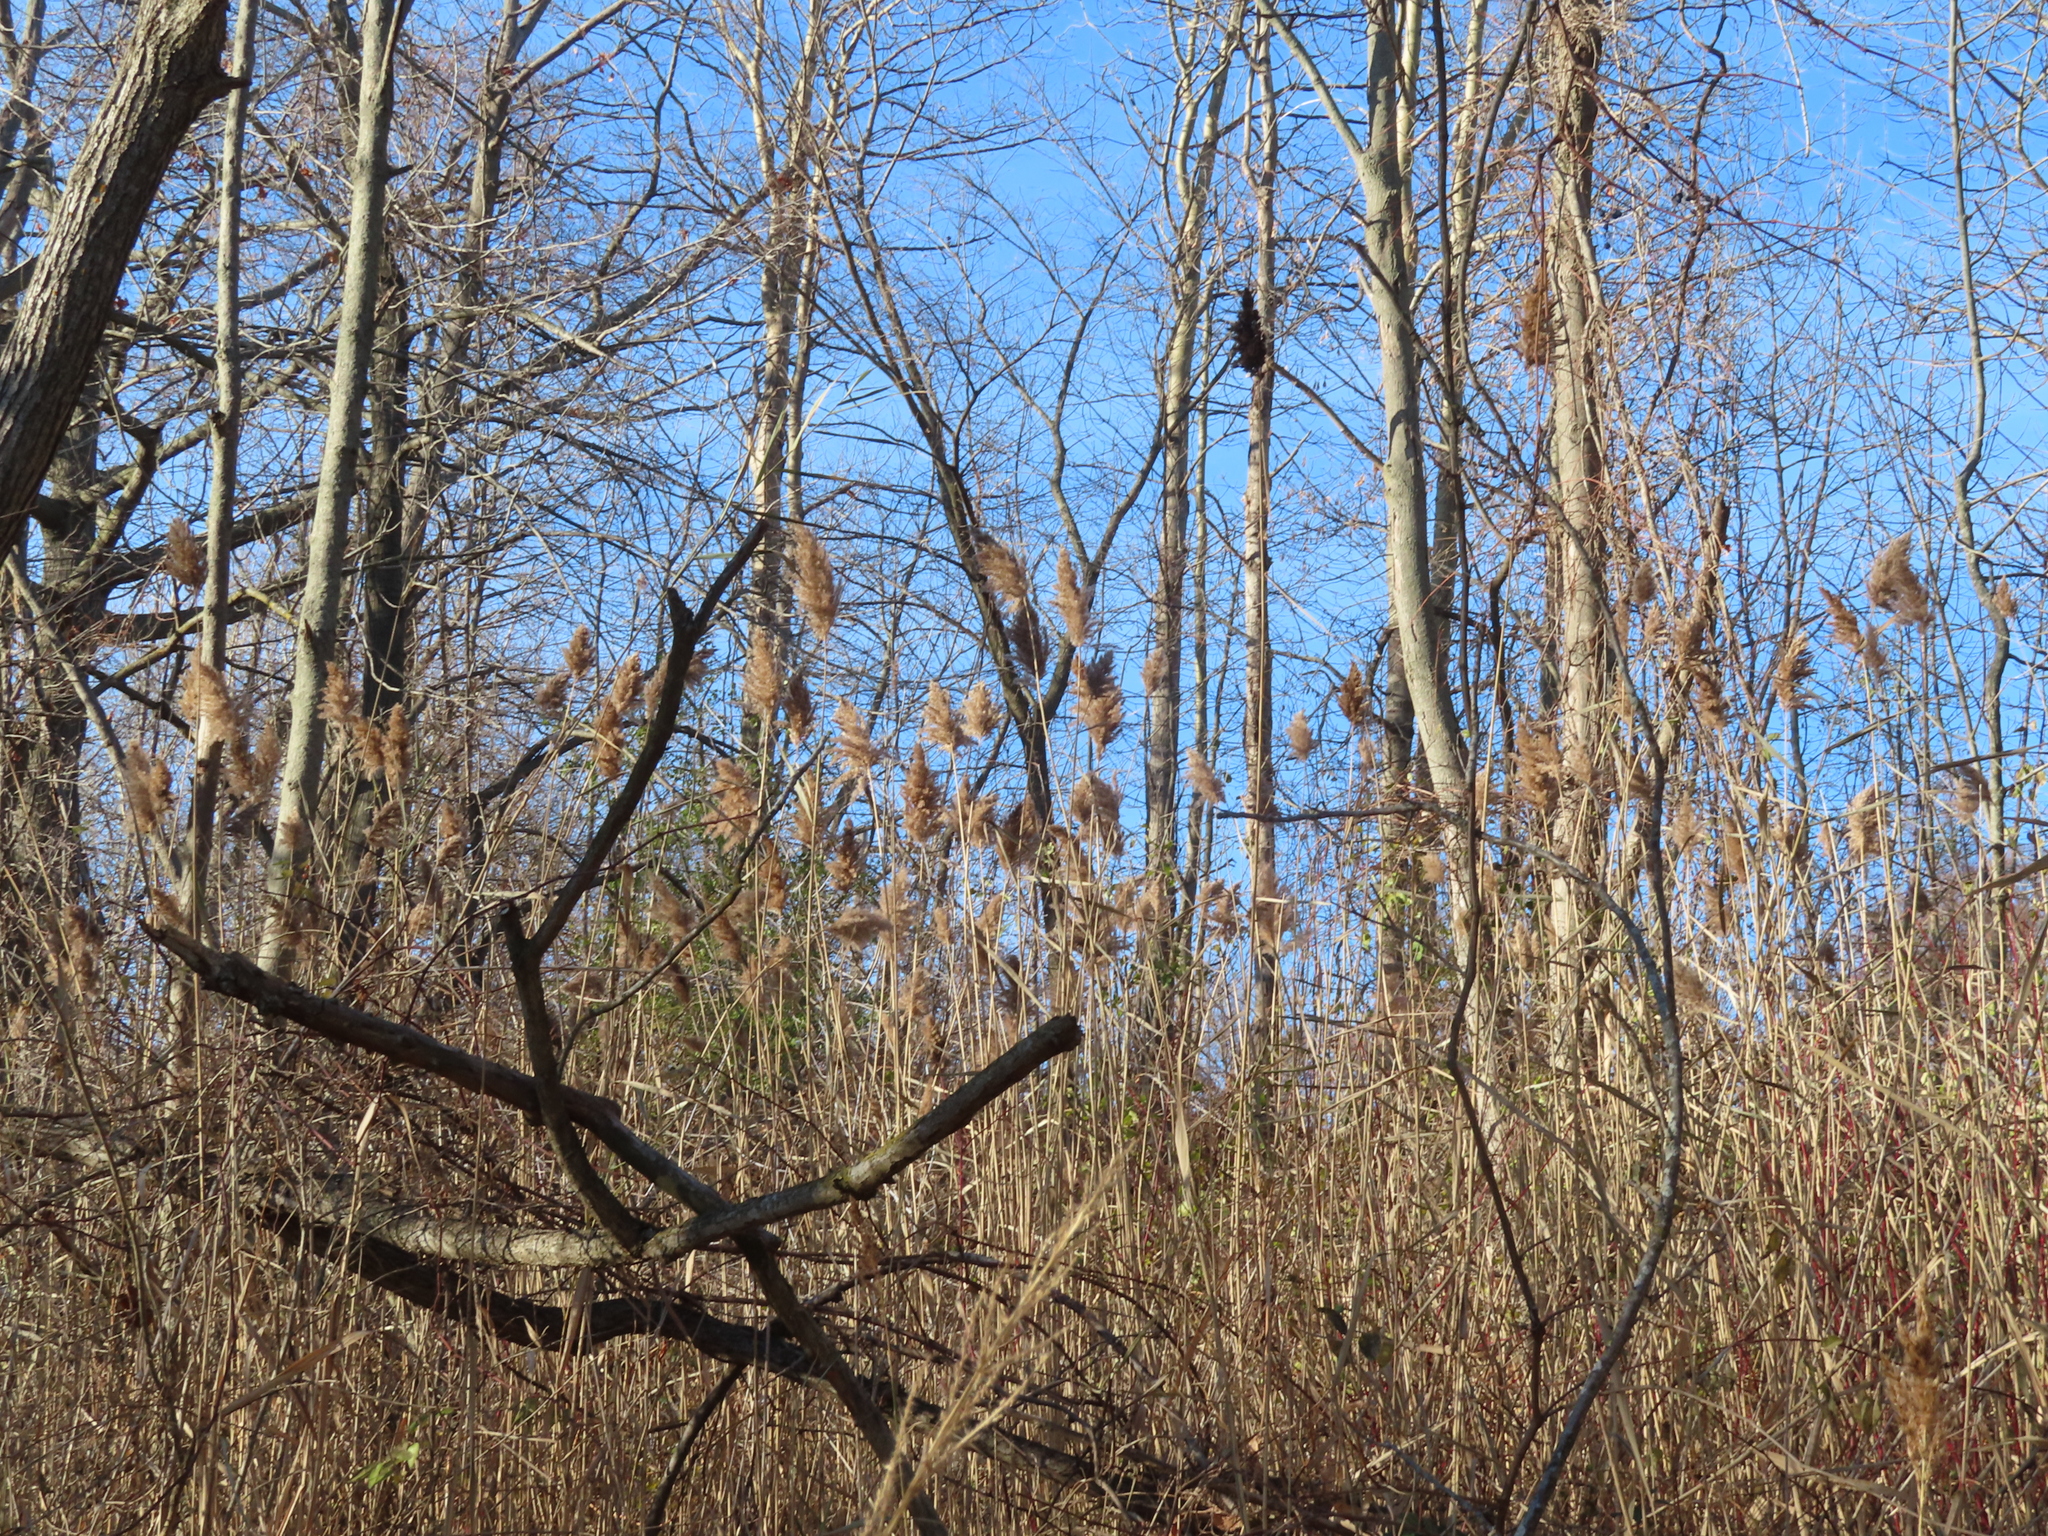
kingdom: Plantae
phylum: Tracheophyta
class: Liliopsida
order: Poales
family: Poaceae
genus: Phragmites
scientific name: Phragmites australis
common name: Common reed
